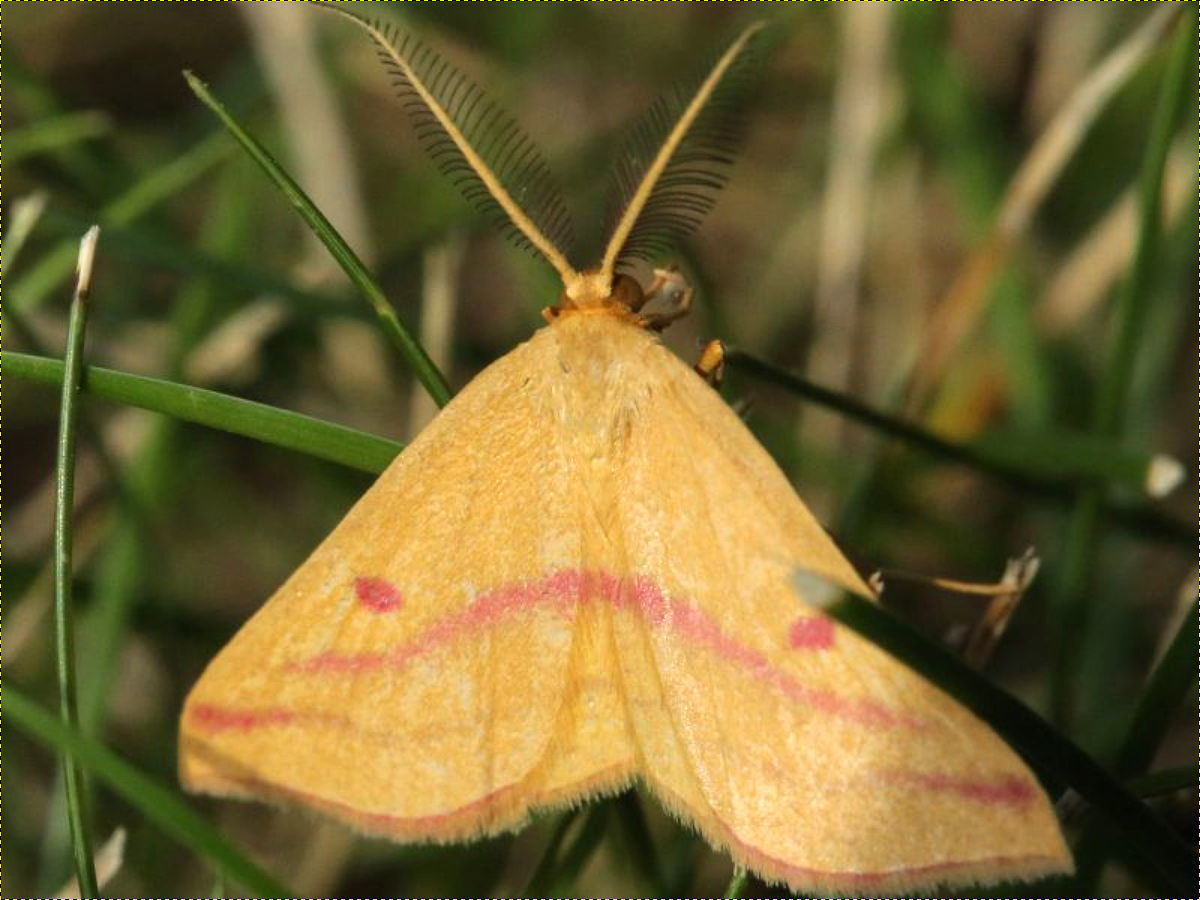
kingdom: Animalia
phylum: Arthropoda
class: Insecta
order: Lepidoptera
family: Geometridae
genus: Haematopis
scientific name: Haematopis grataria
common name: Chickweed geometer
